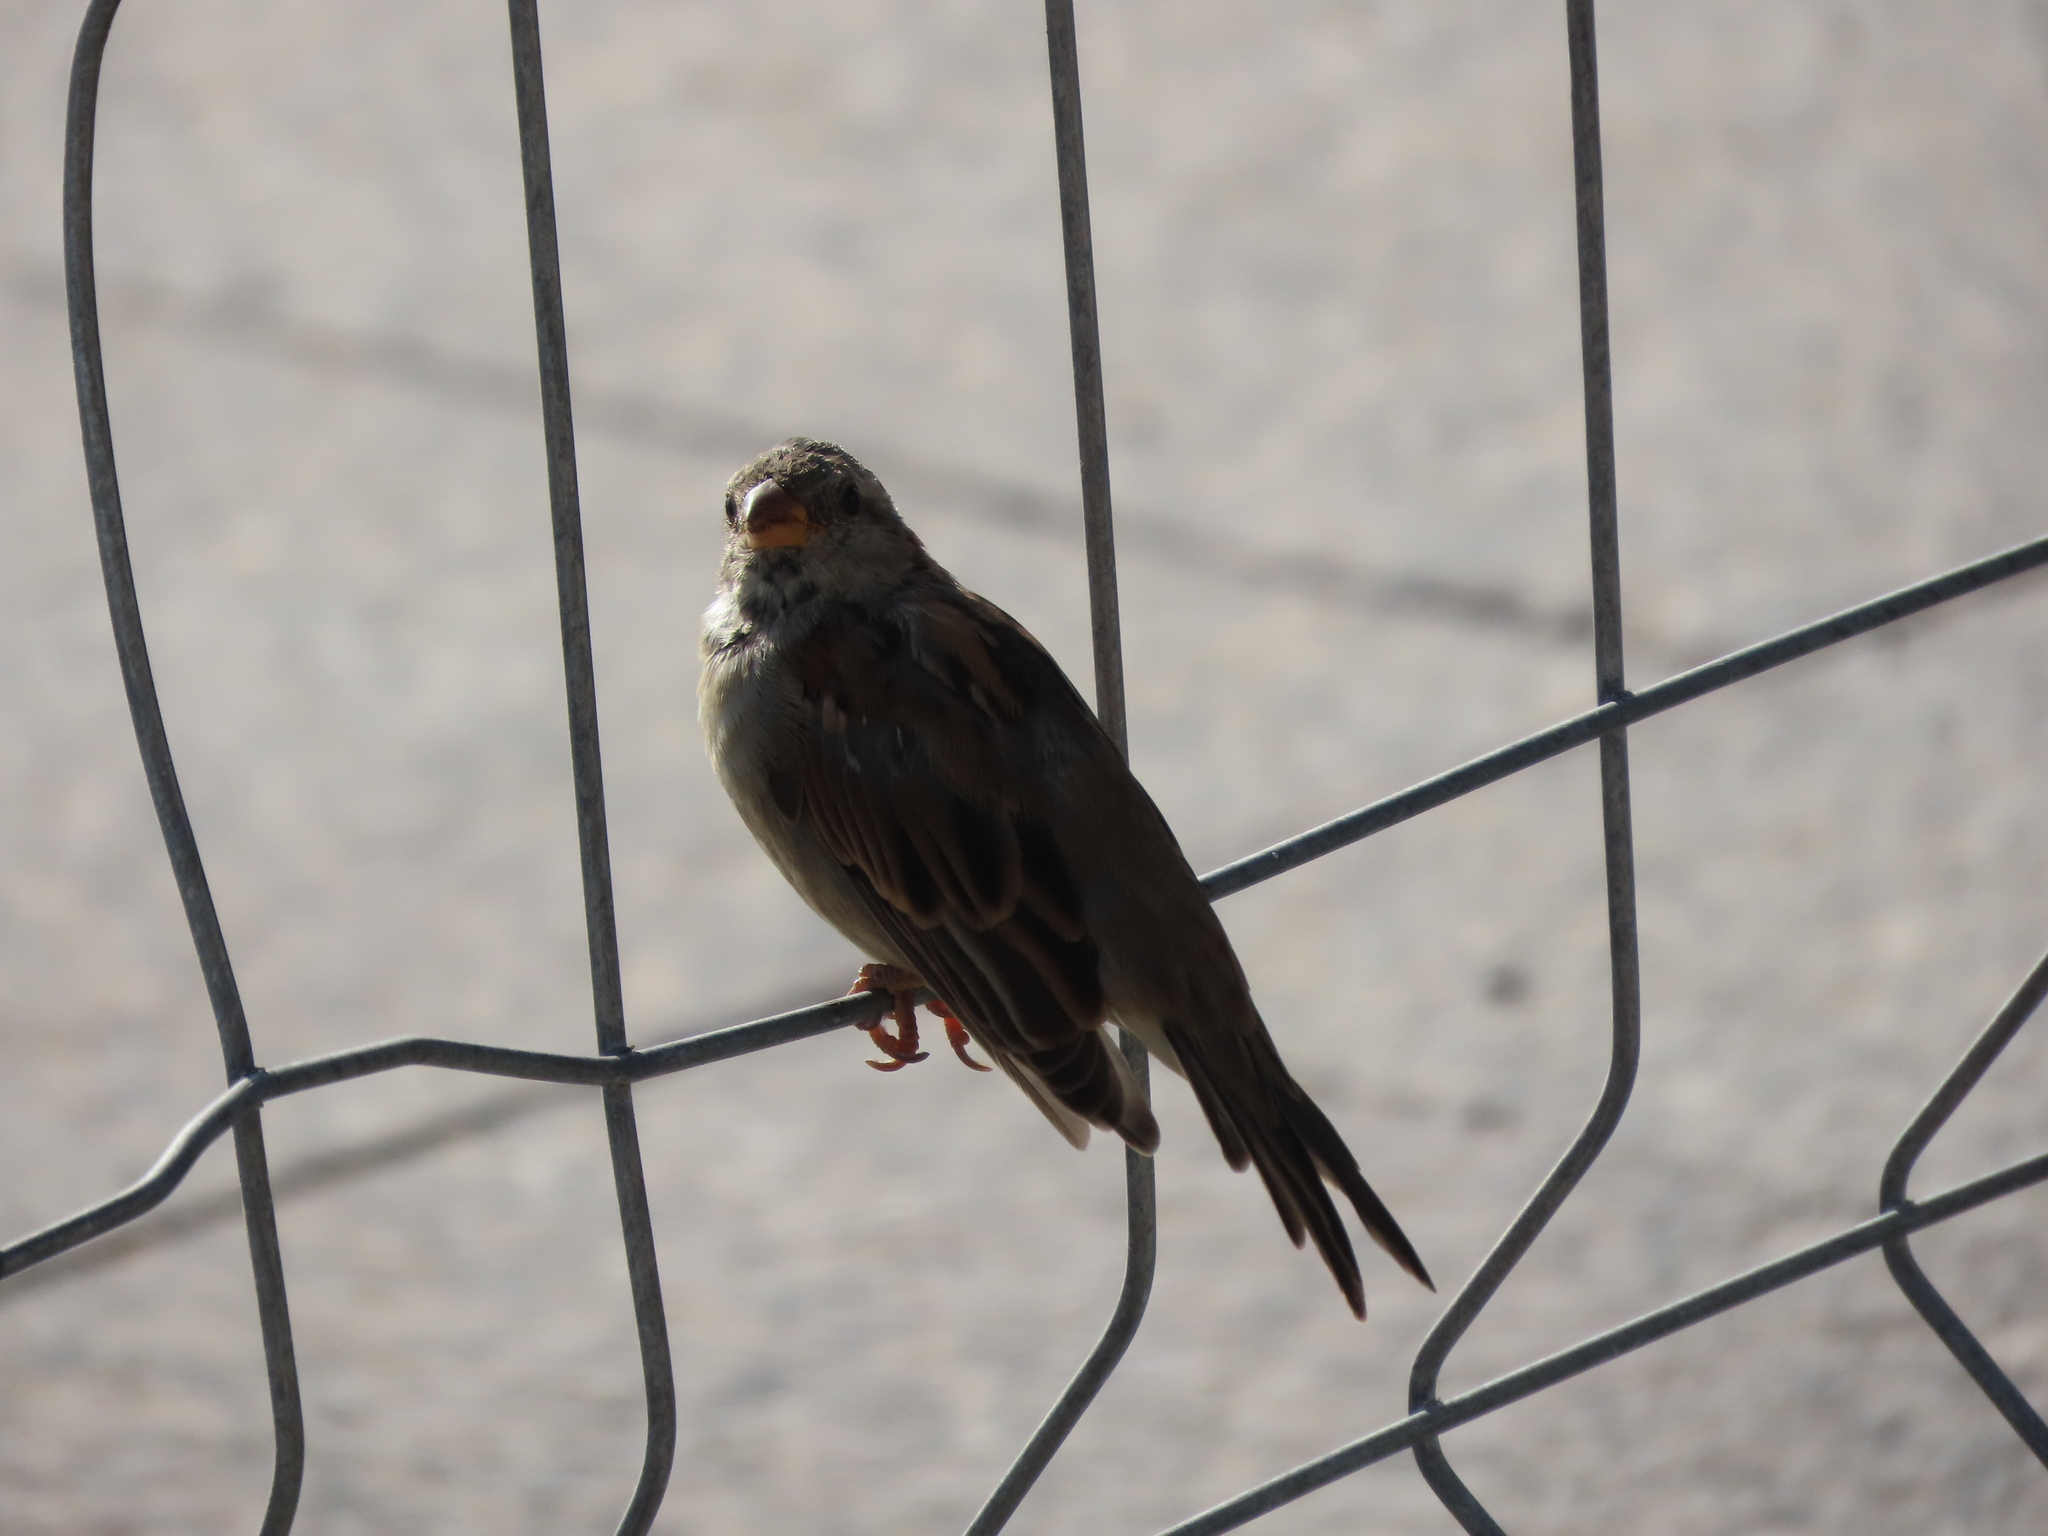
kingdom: Animalia
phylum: Chordata
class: Aves
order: Passeriformes
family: Passeridae
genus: Passer
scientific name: Passer domesticus
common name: House sparrow
